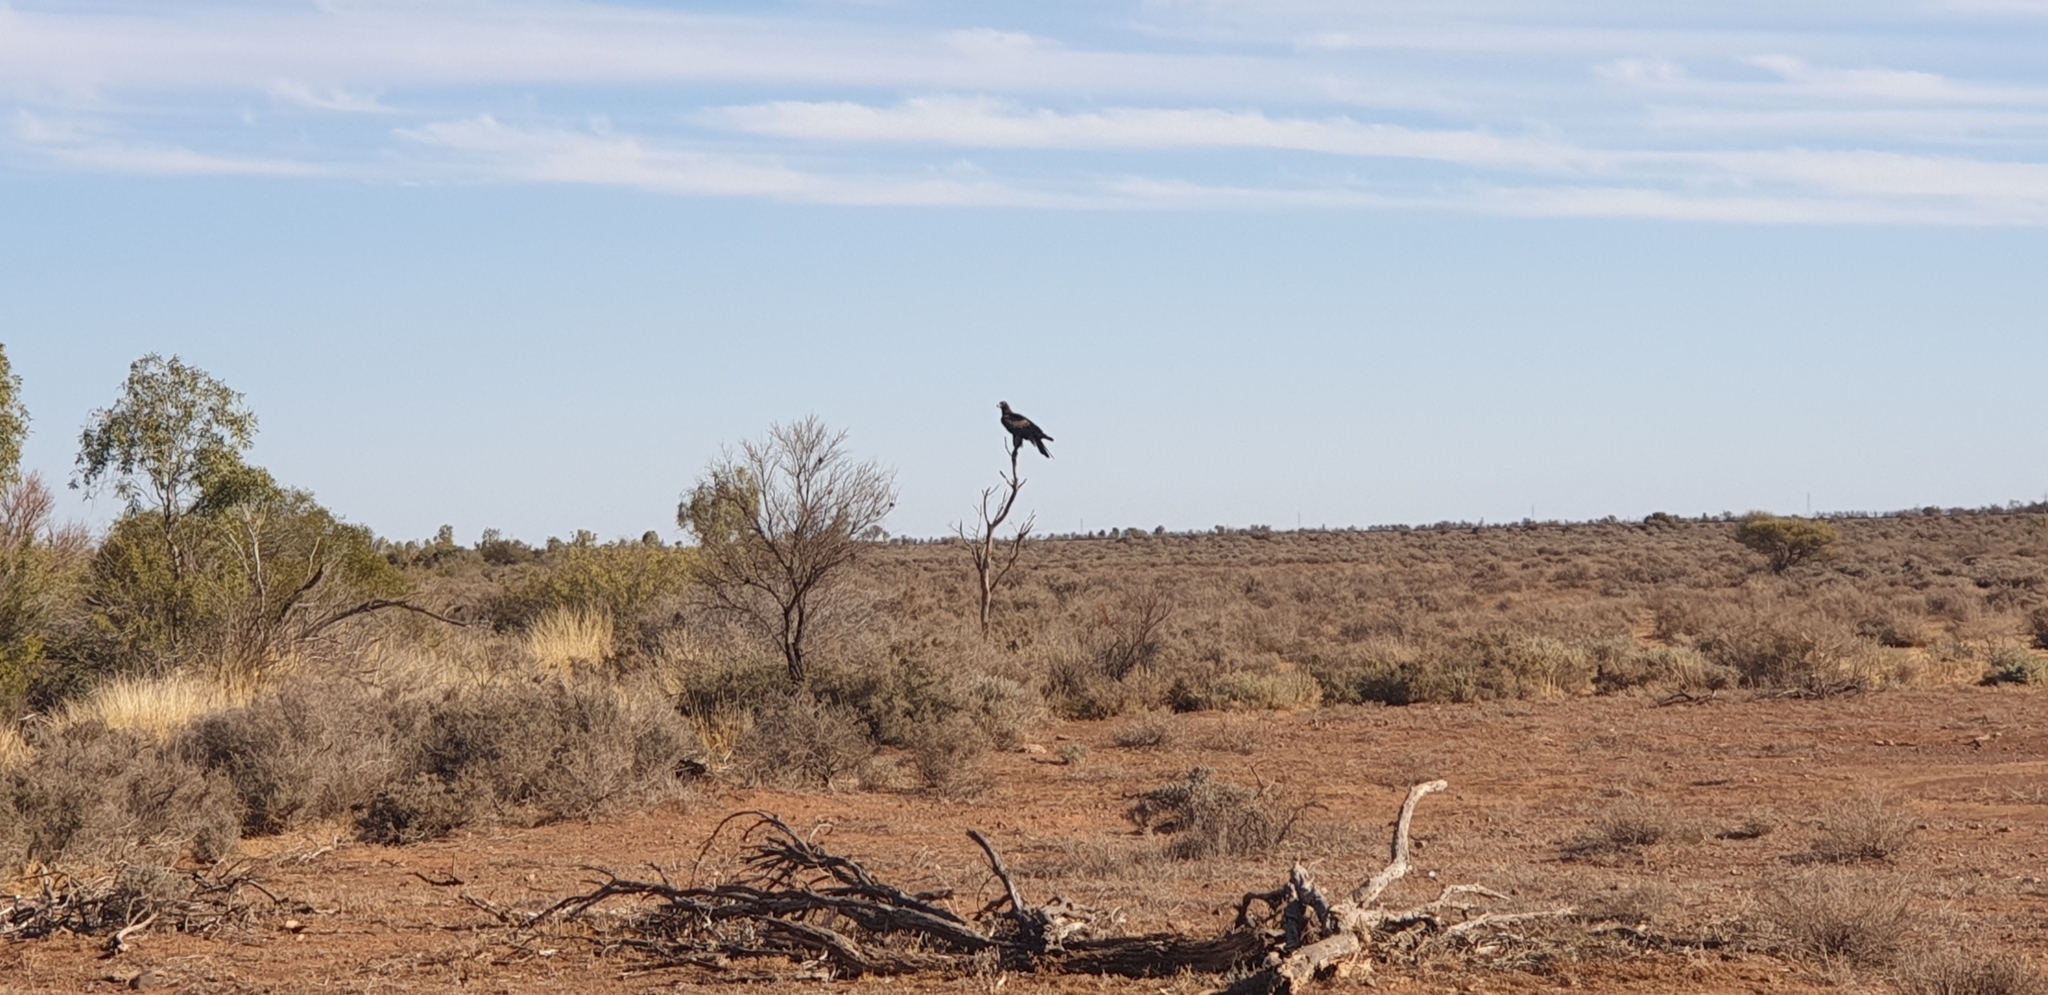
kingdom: Animalia
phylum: Chordata
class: Aves
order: Accipitriformes
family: Accipitridae
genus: Aquila
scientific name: Aquila audax
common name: Wedge-tailed eagle
